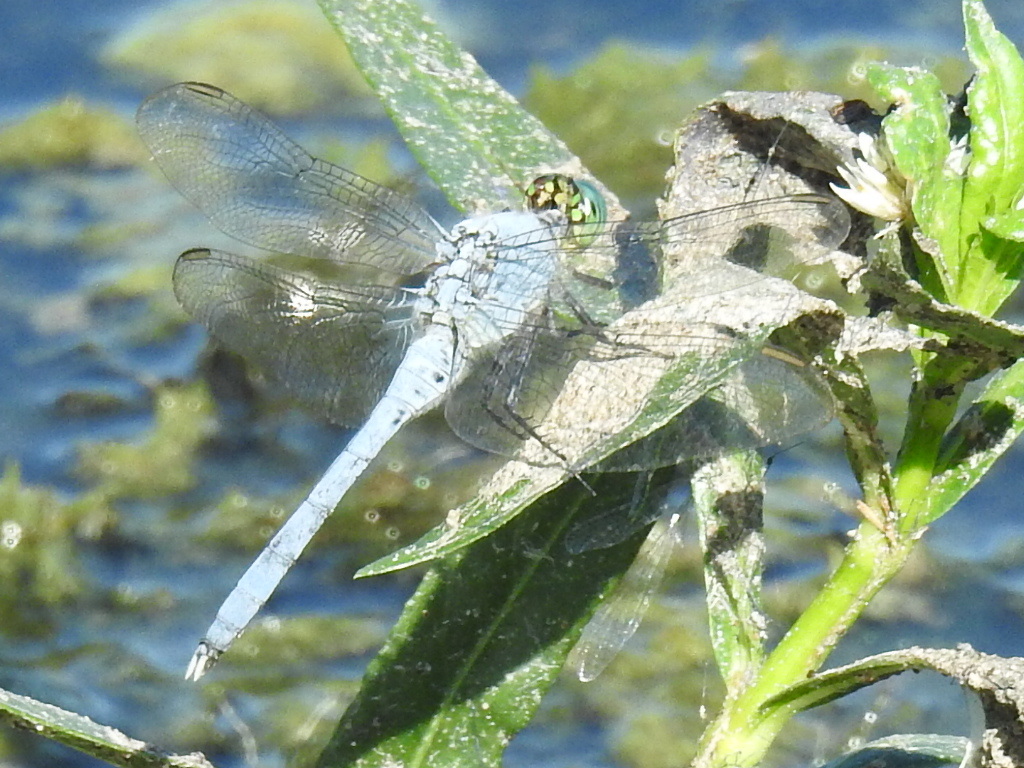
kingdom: Animalia
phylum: Arthropoda
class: Insecta
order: Odonata
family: Libellulidae
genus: Erythemis
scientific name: Erythemis simplicicollis
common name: Eastern pondhawk
